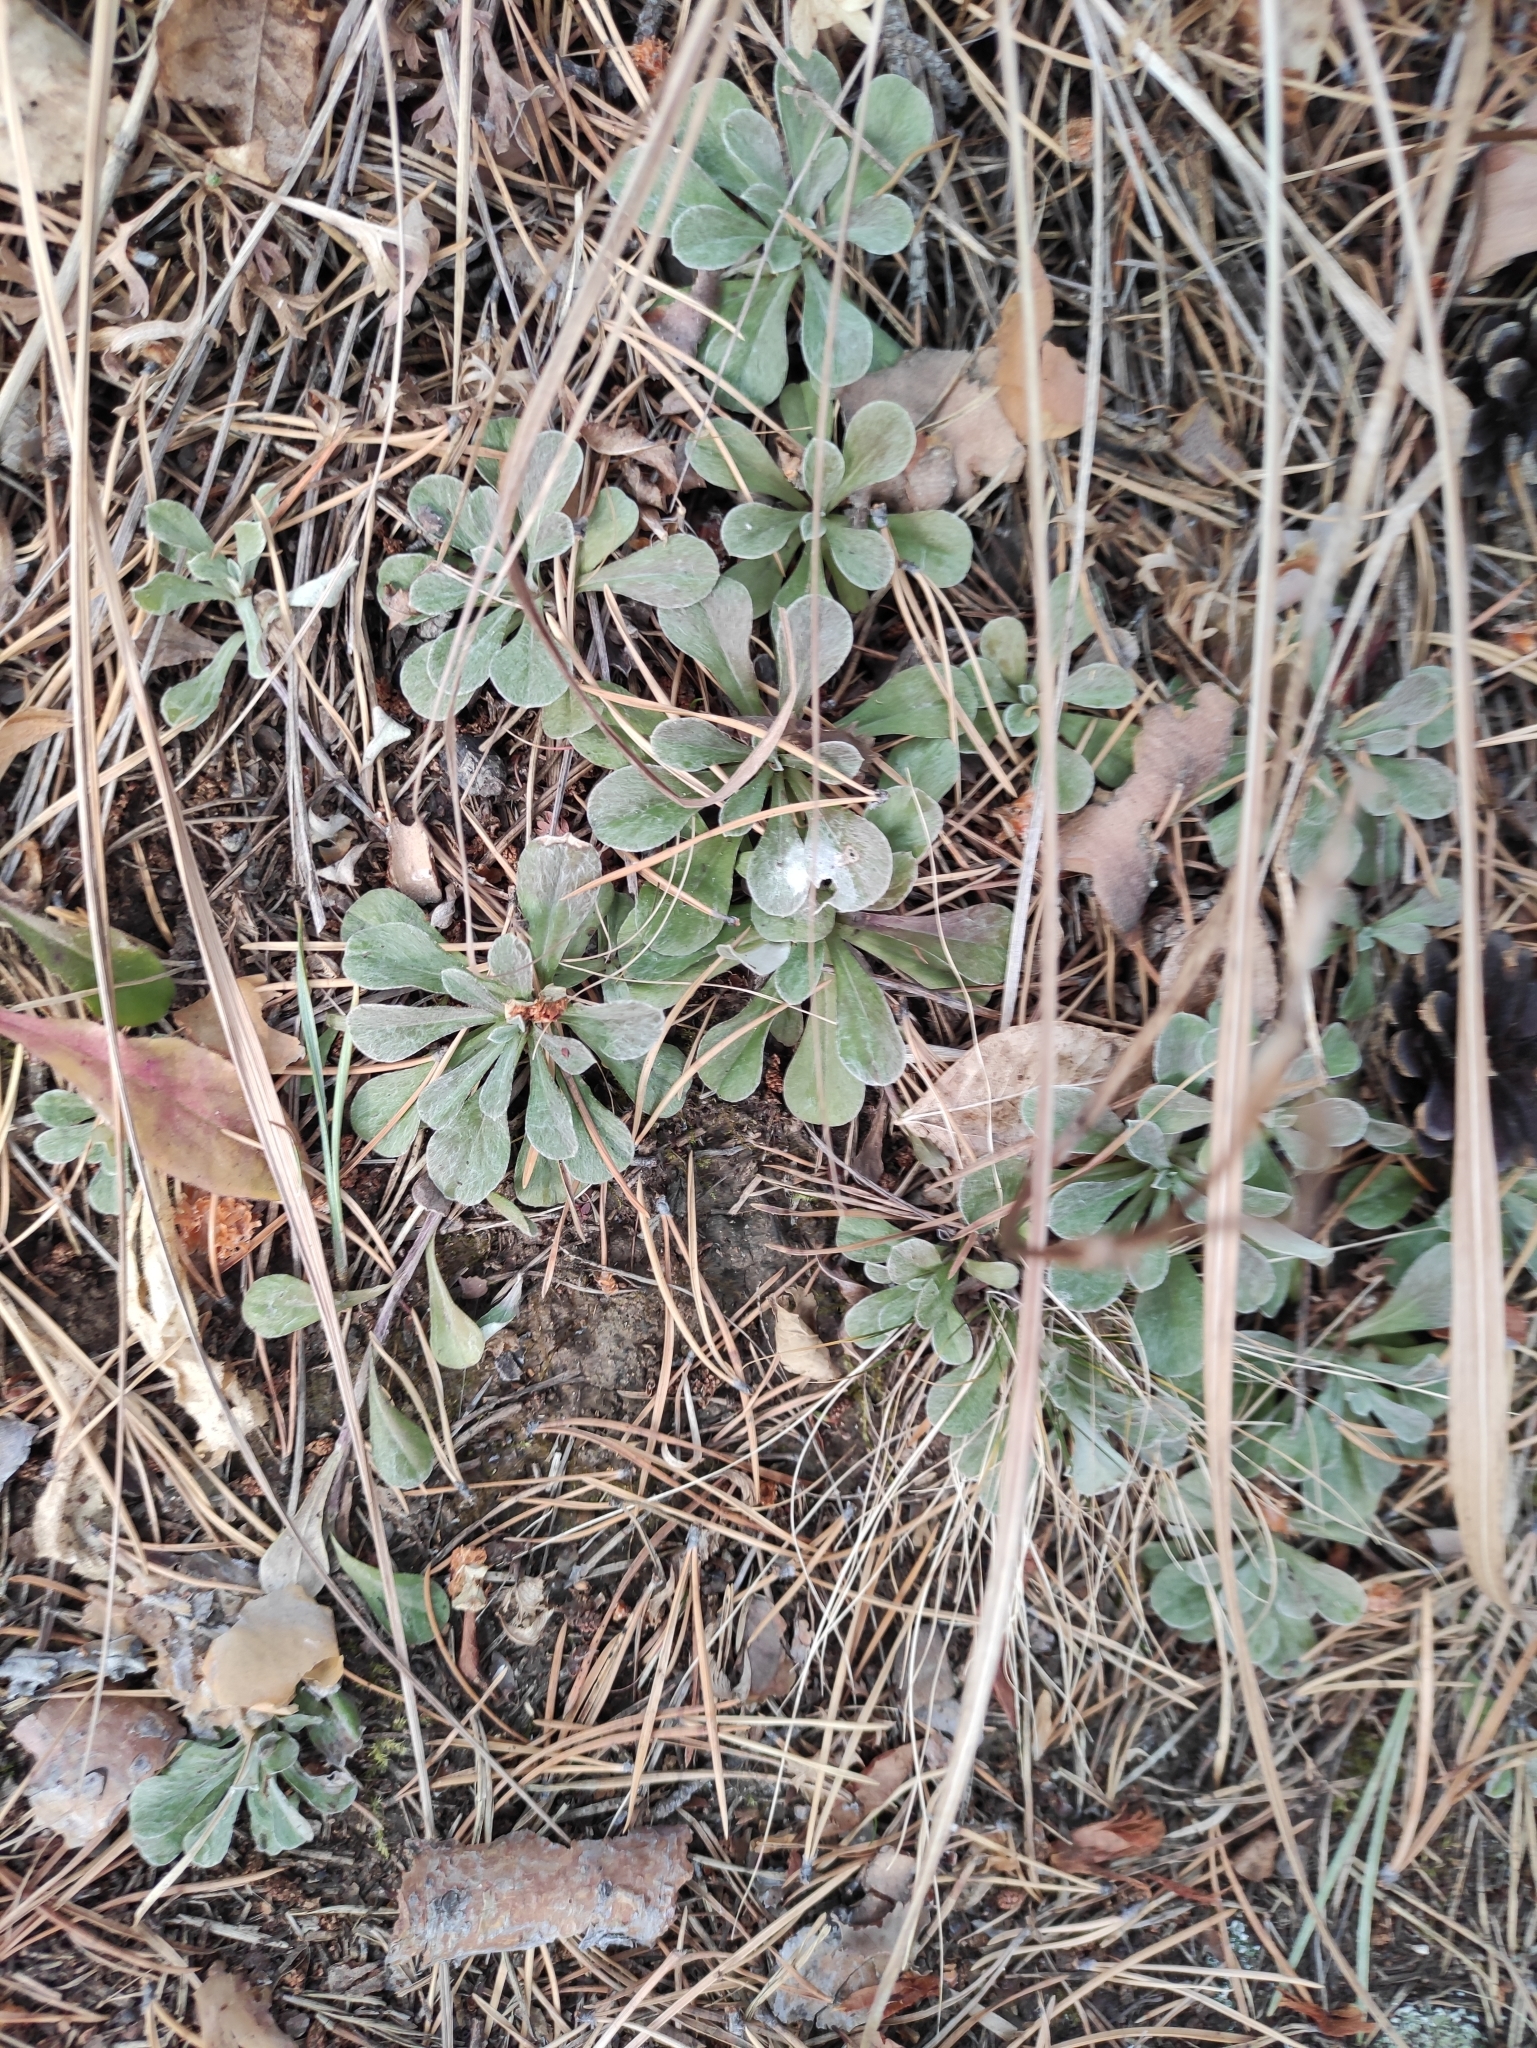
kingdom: Plantae
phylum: Tracheophyta
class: Magnoliopsida
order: Asterales
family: Asteraceae
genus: Antennaria
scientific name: Antennaria dioica
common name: Mountain everlasting
